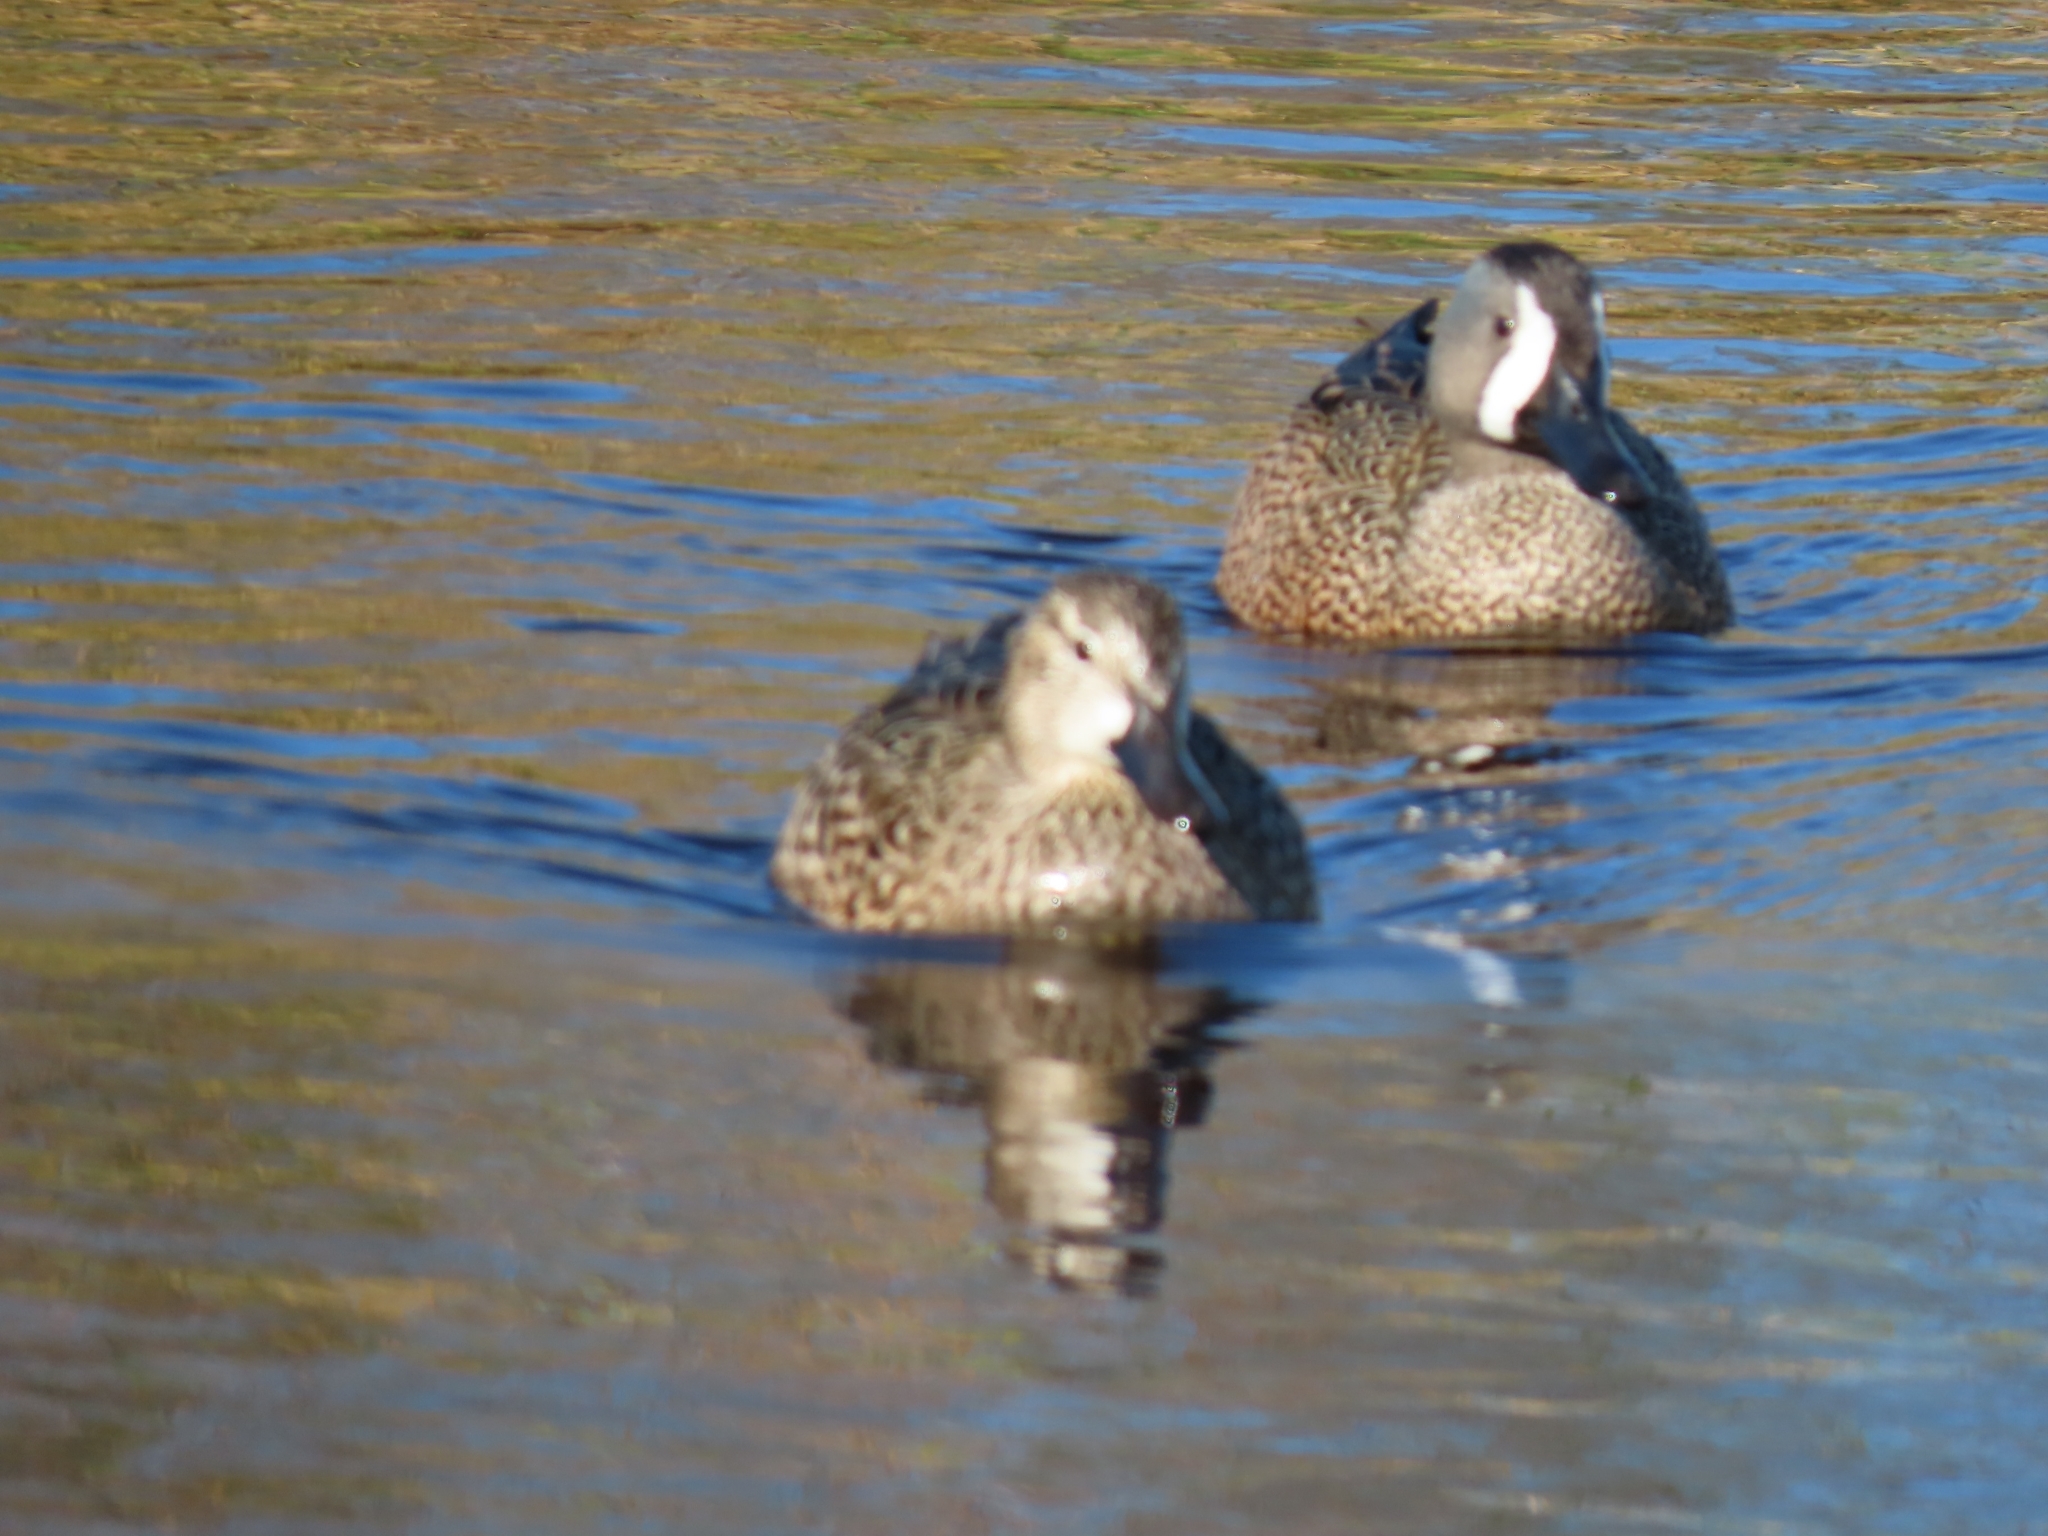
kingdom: Animalia
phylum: Chordata
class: Aves
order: Anseriformes
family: Anatidae
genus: Spatula
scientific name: Spatula discors
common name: Blue-winged teal
